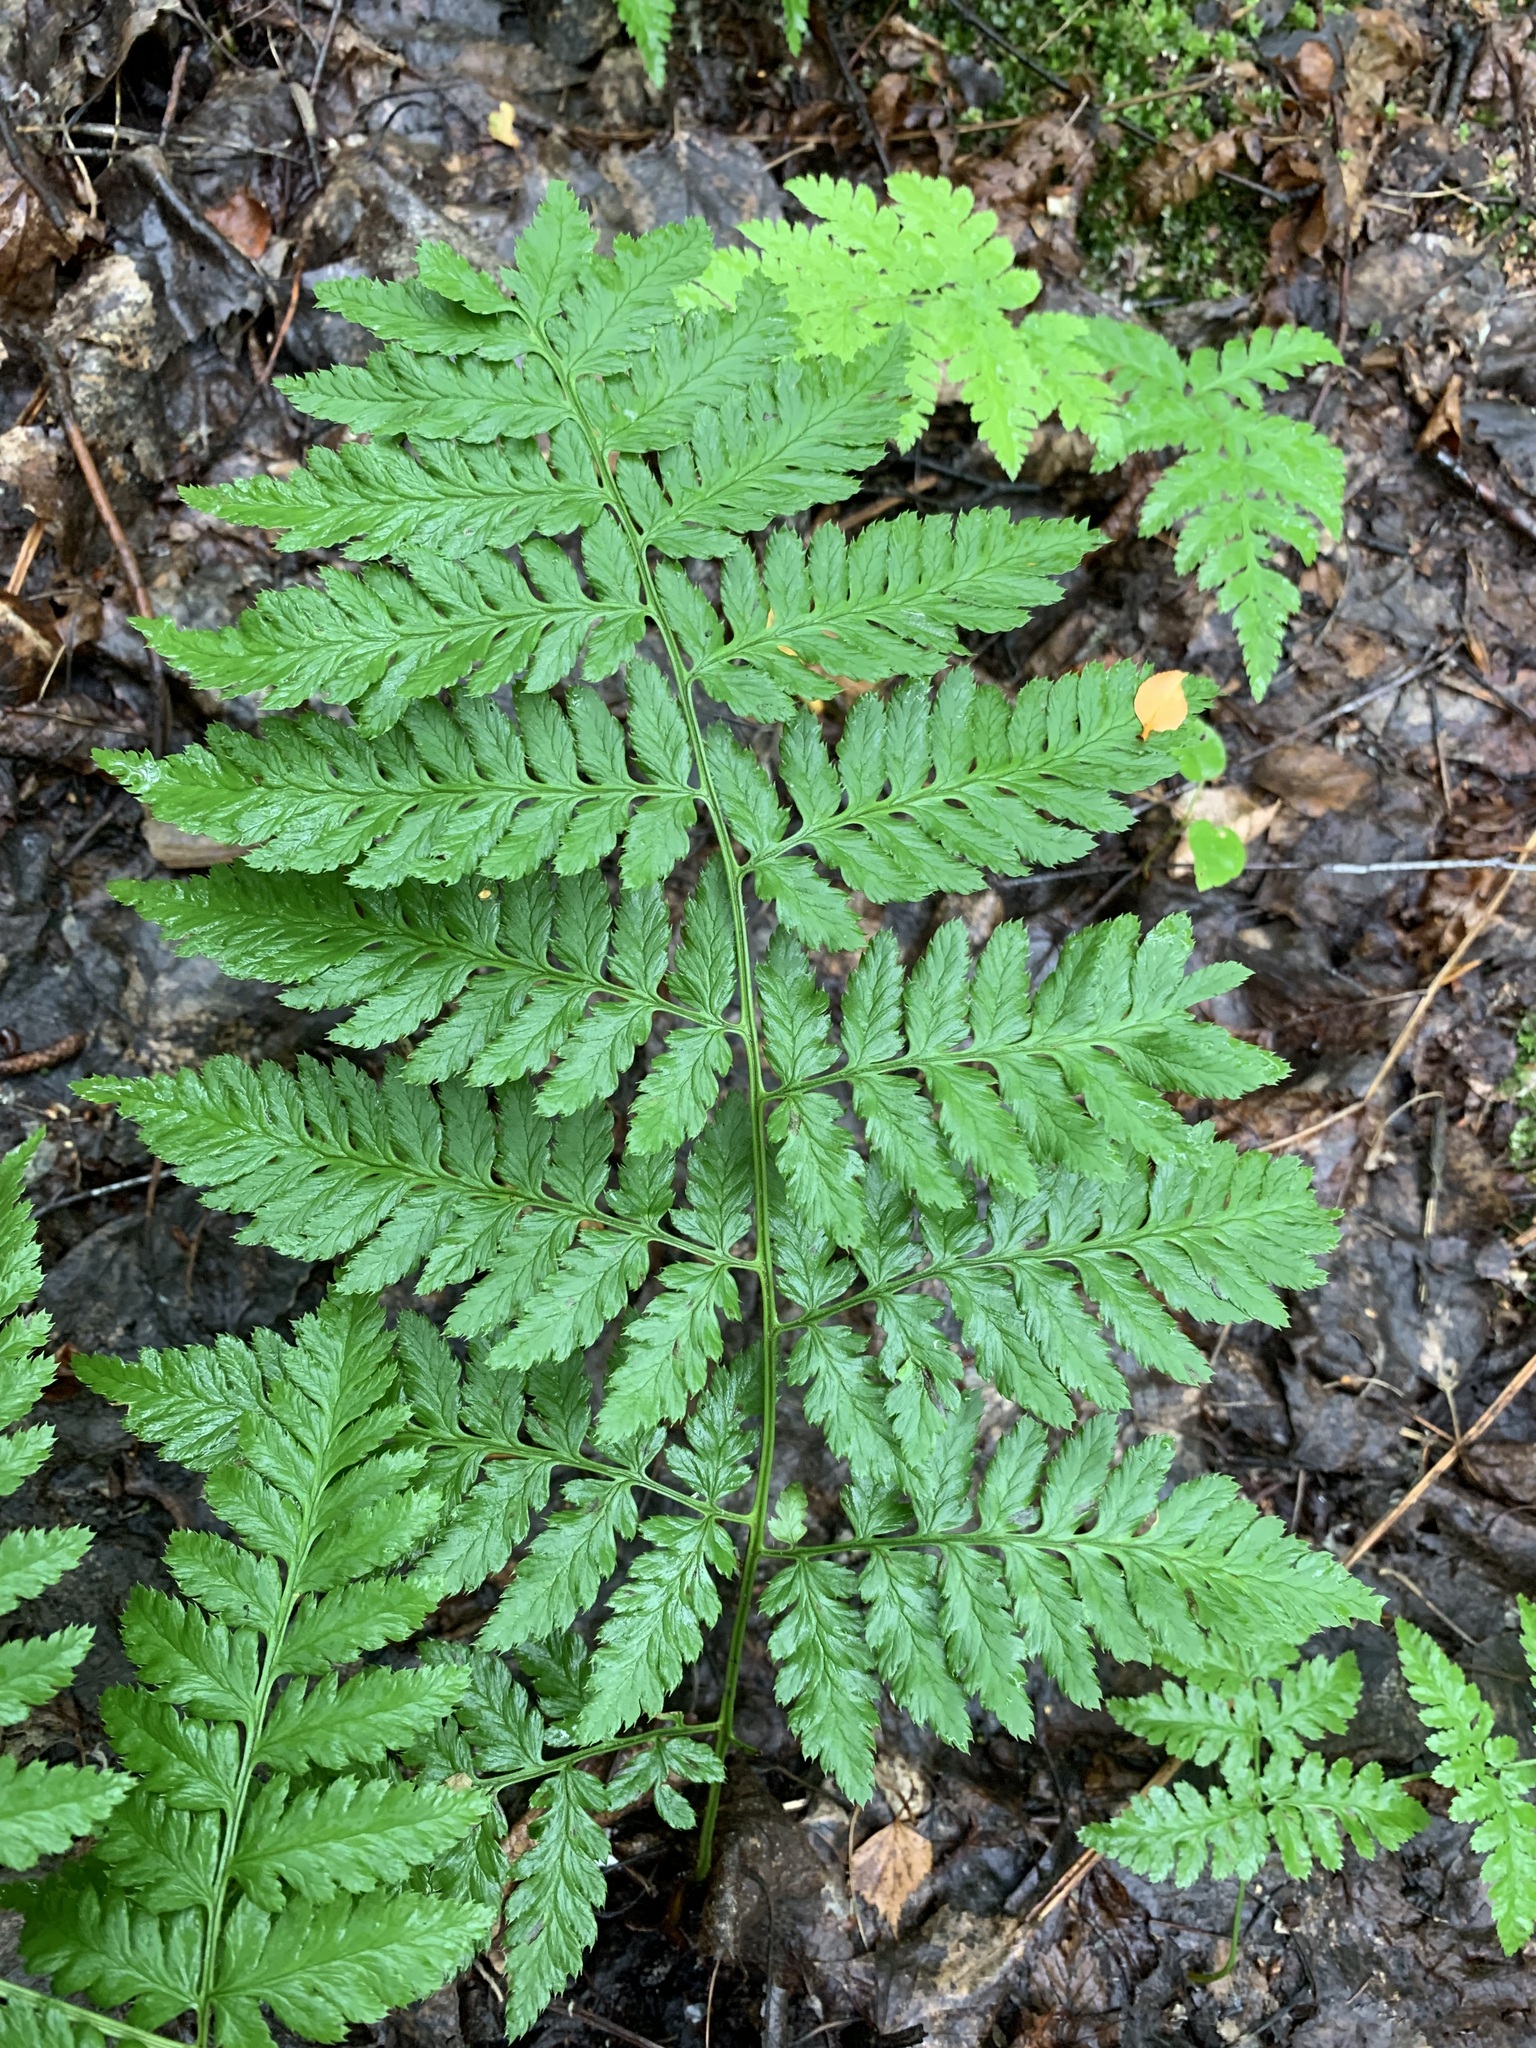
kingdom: Plantae
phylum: Tracheophyta
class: Polypodiopsida
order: Polypodiales
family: Dryopteridaceae
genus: Dryopteris
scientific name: Dryopteris carthusiana
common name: Narrow buckler-fern
